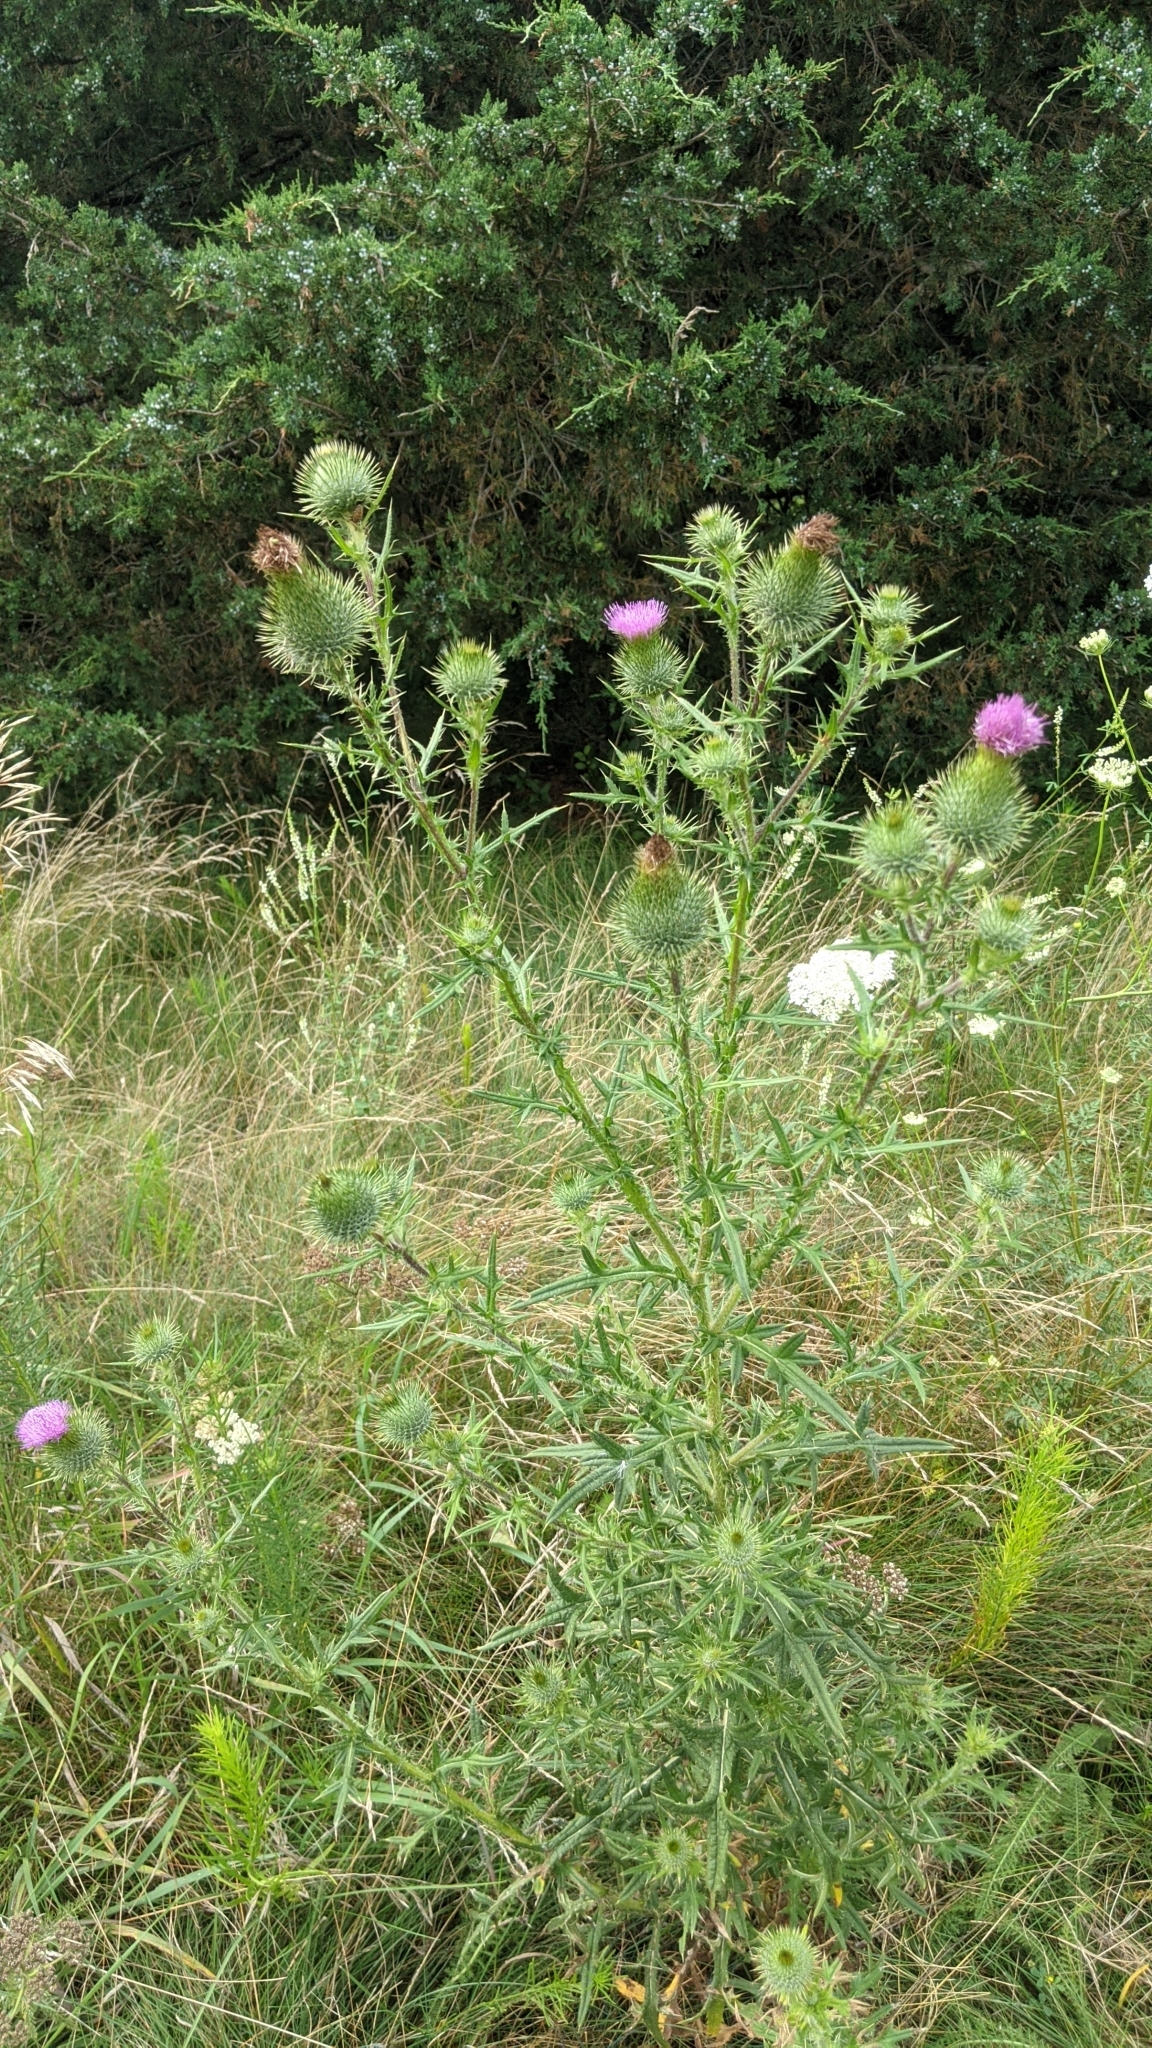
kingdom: Plantae
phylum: Tracheophyta
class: Magnoliopsida
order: Asterales
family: Asteraceae
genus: Cirsium
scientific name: Cirsium vulgare
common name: Bull thistle
